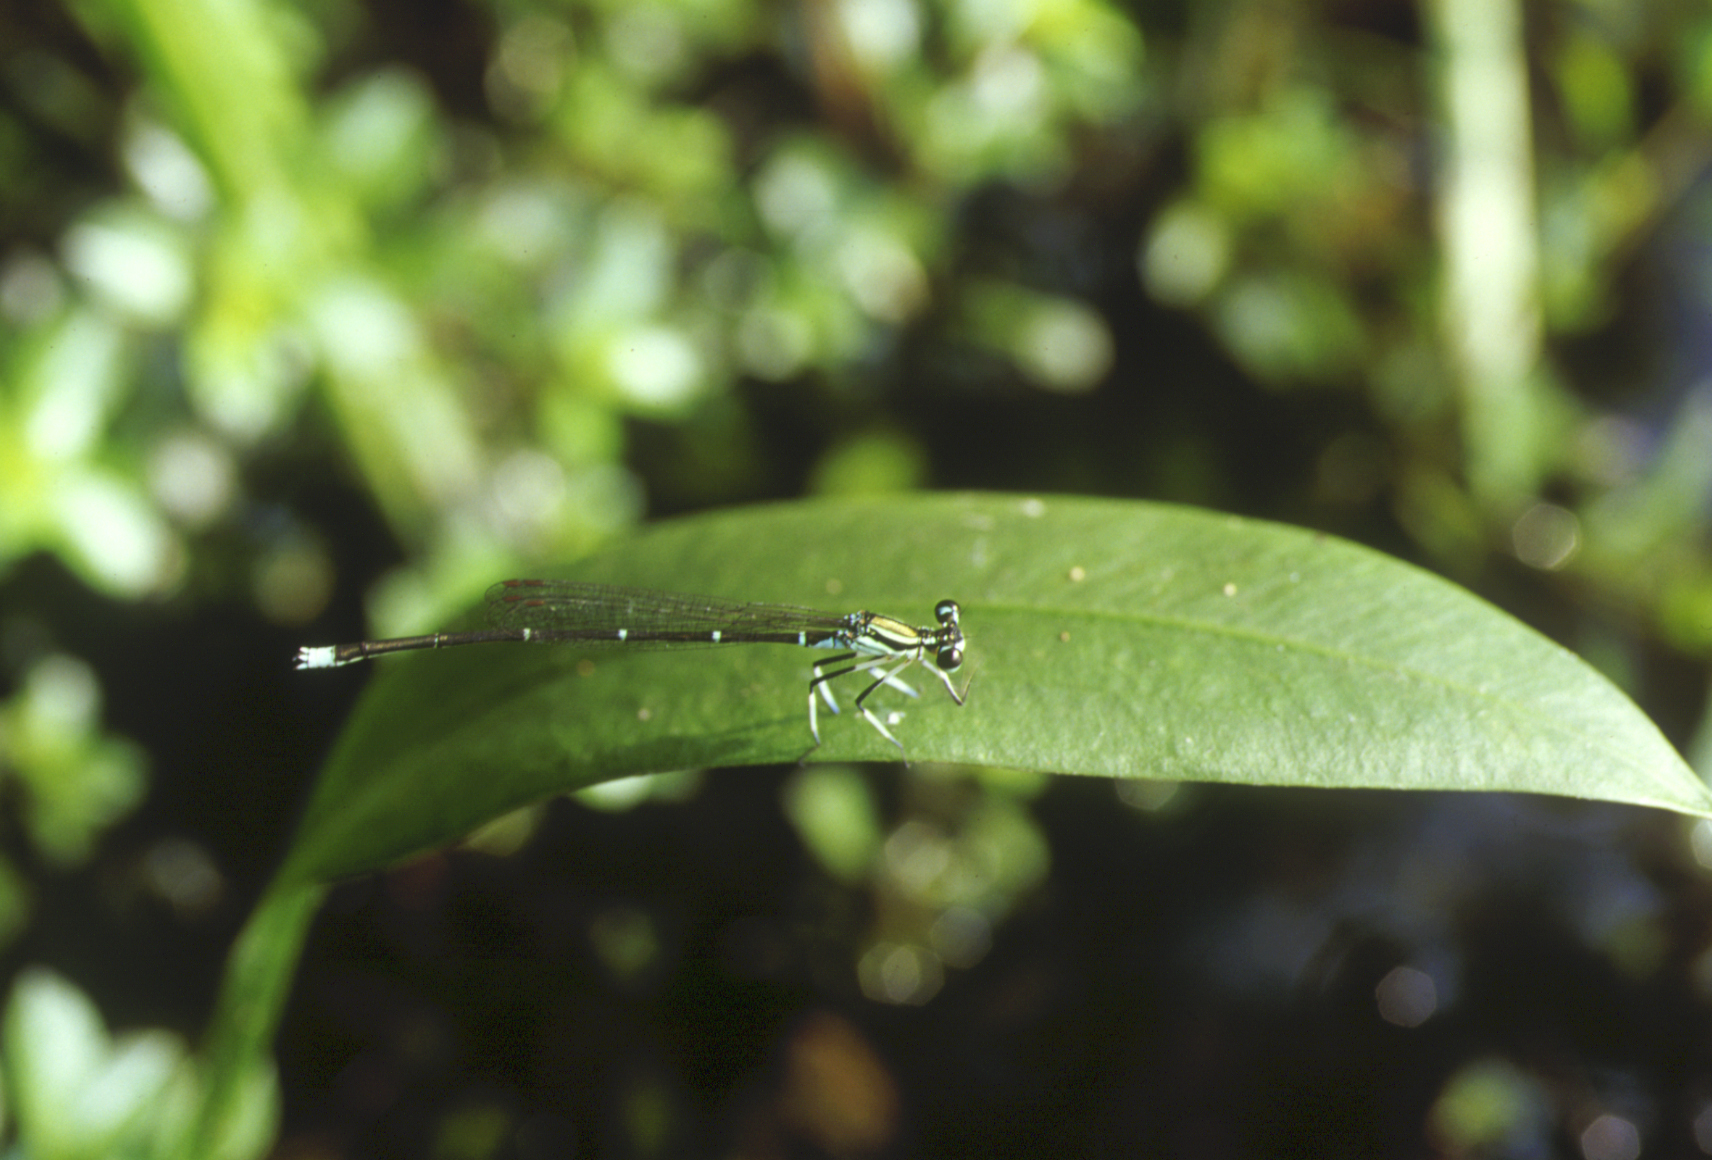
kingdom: Animalia
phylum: Arthropoda
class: Insecta
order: Odonata
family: Platycnemididae
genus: Pseudocopera
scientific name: Pseudocopera annulata
